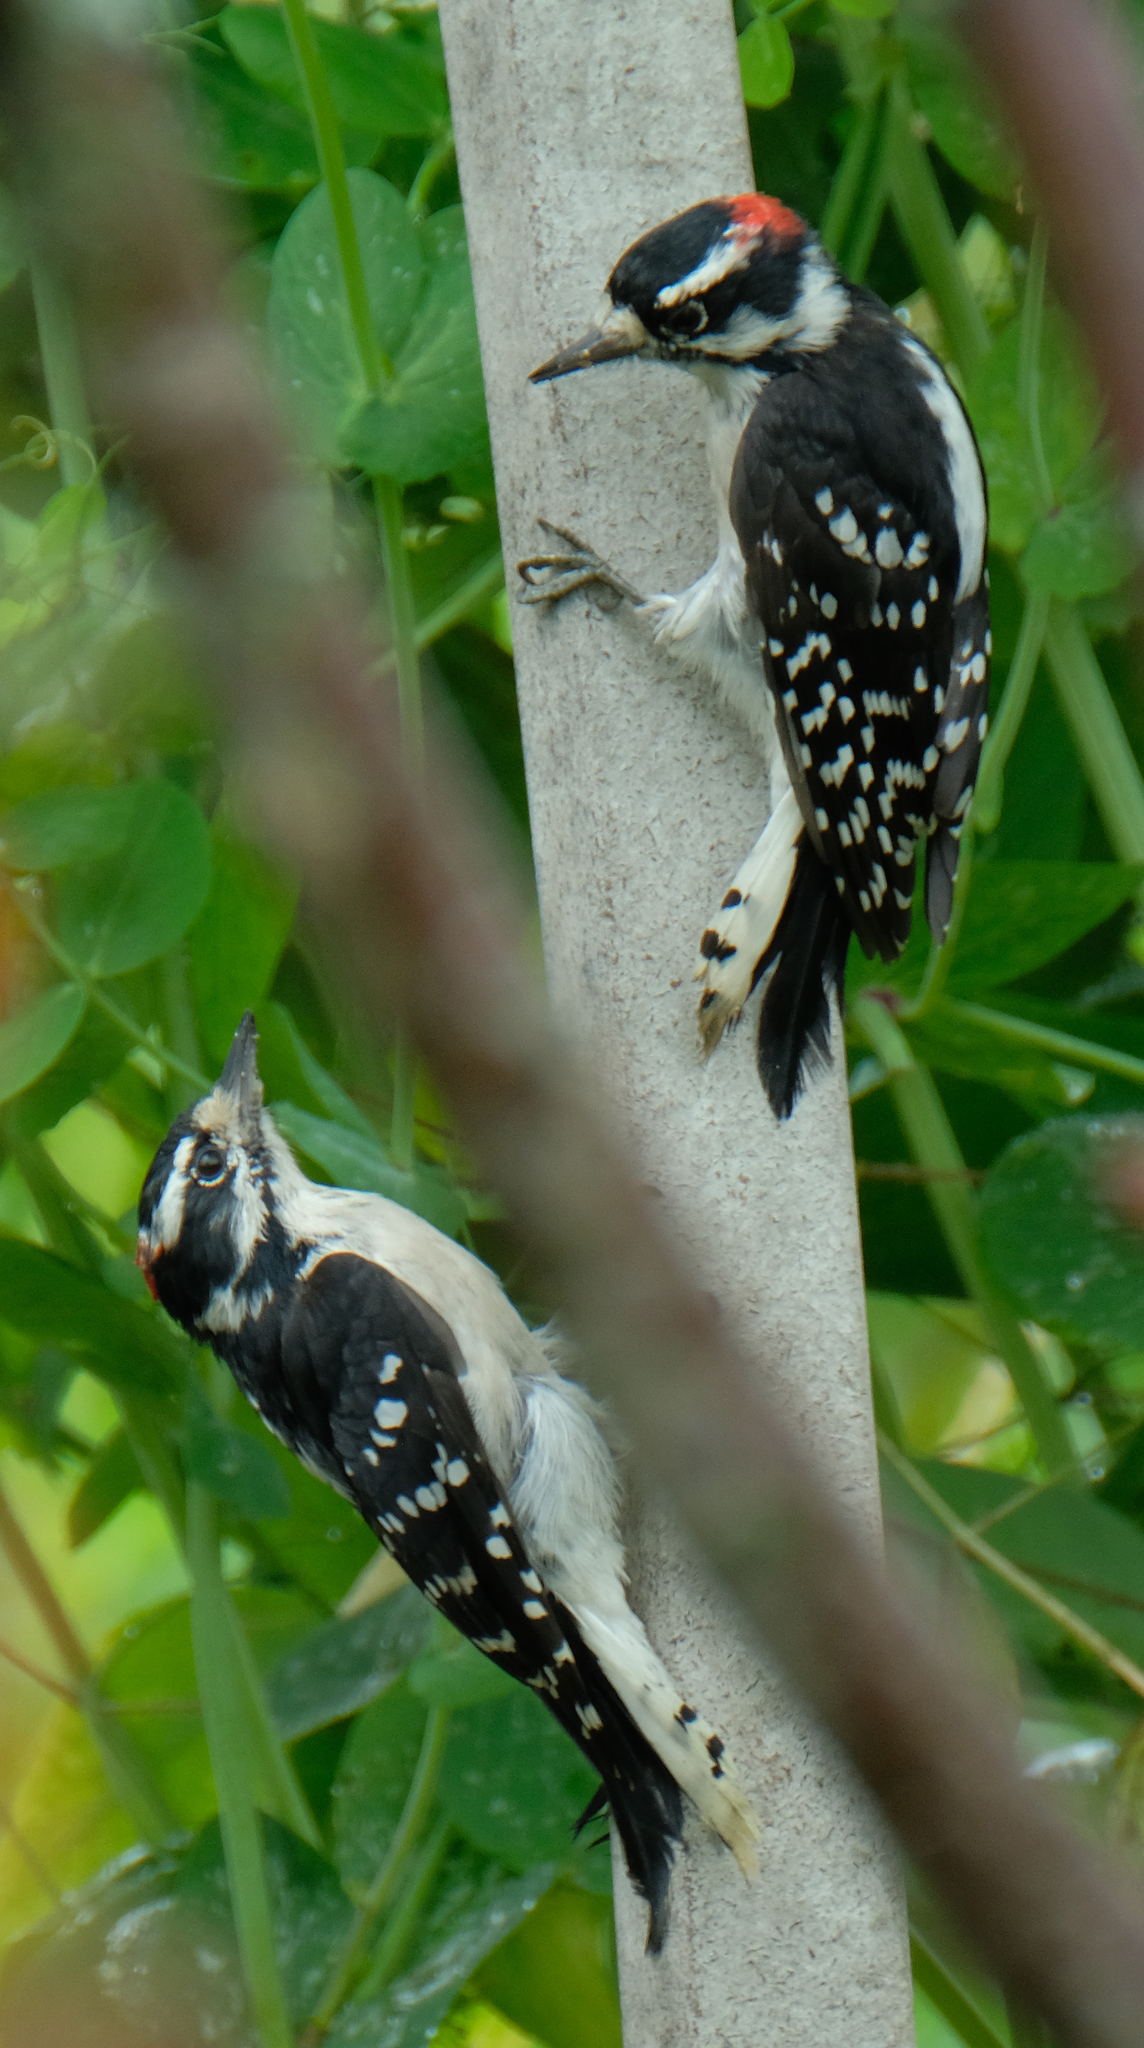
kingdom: Animalia
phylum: Chordata
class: Aves
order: Piciformes
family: Picidae
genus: Dryobates
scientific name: Dryobates pubescens
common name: Downy woodpecker
